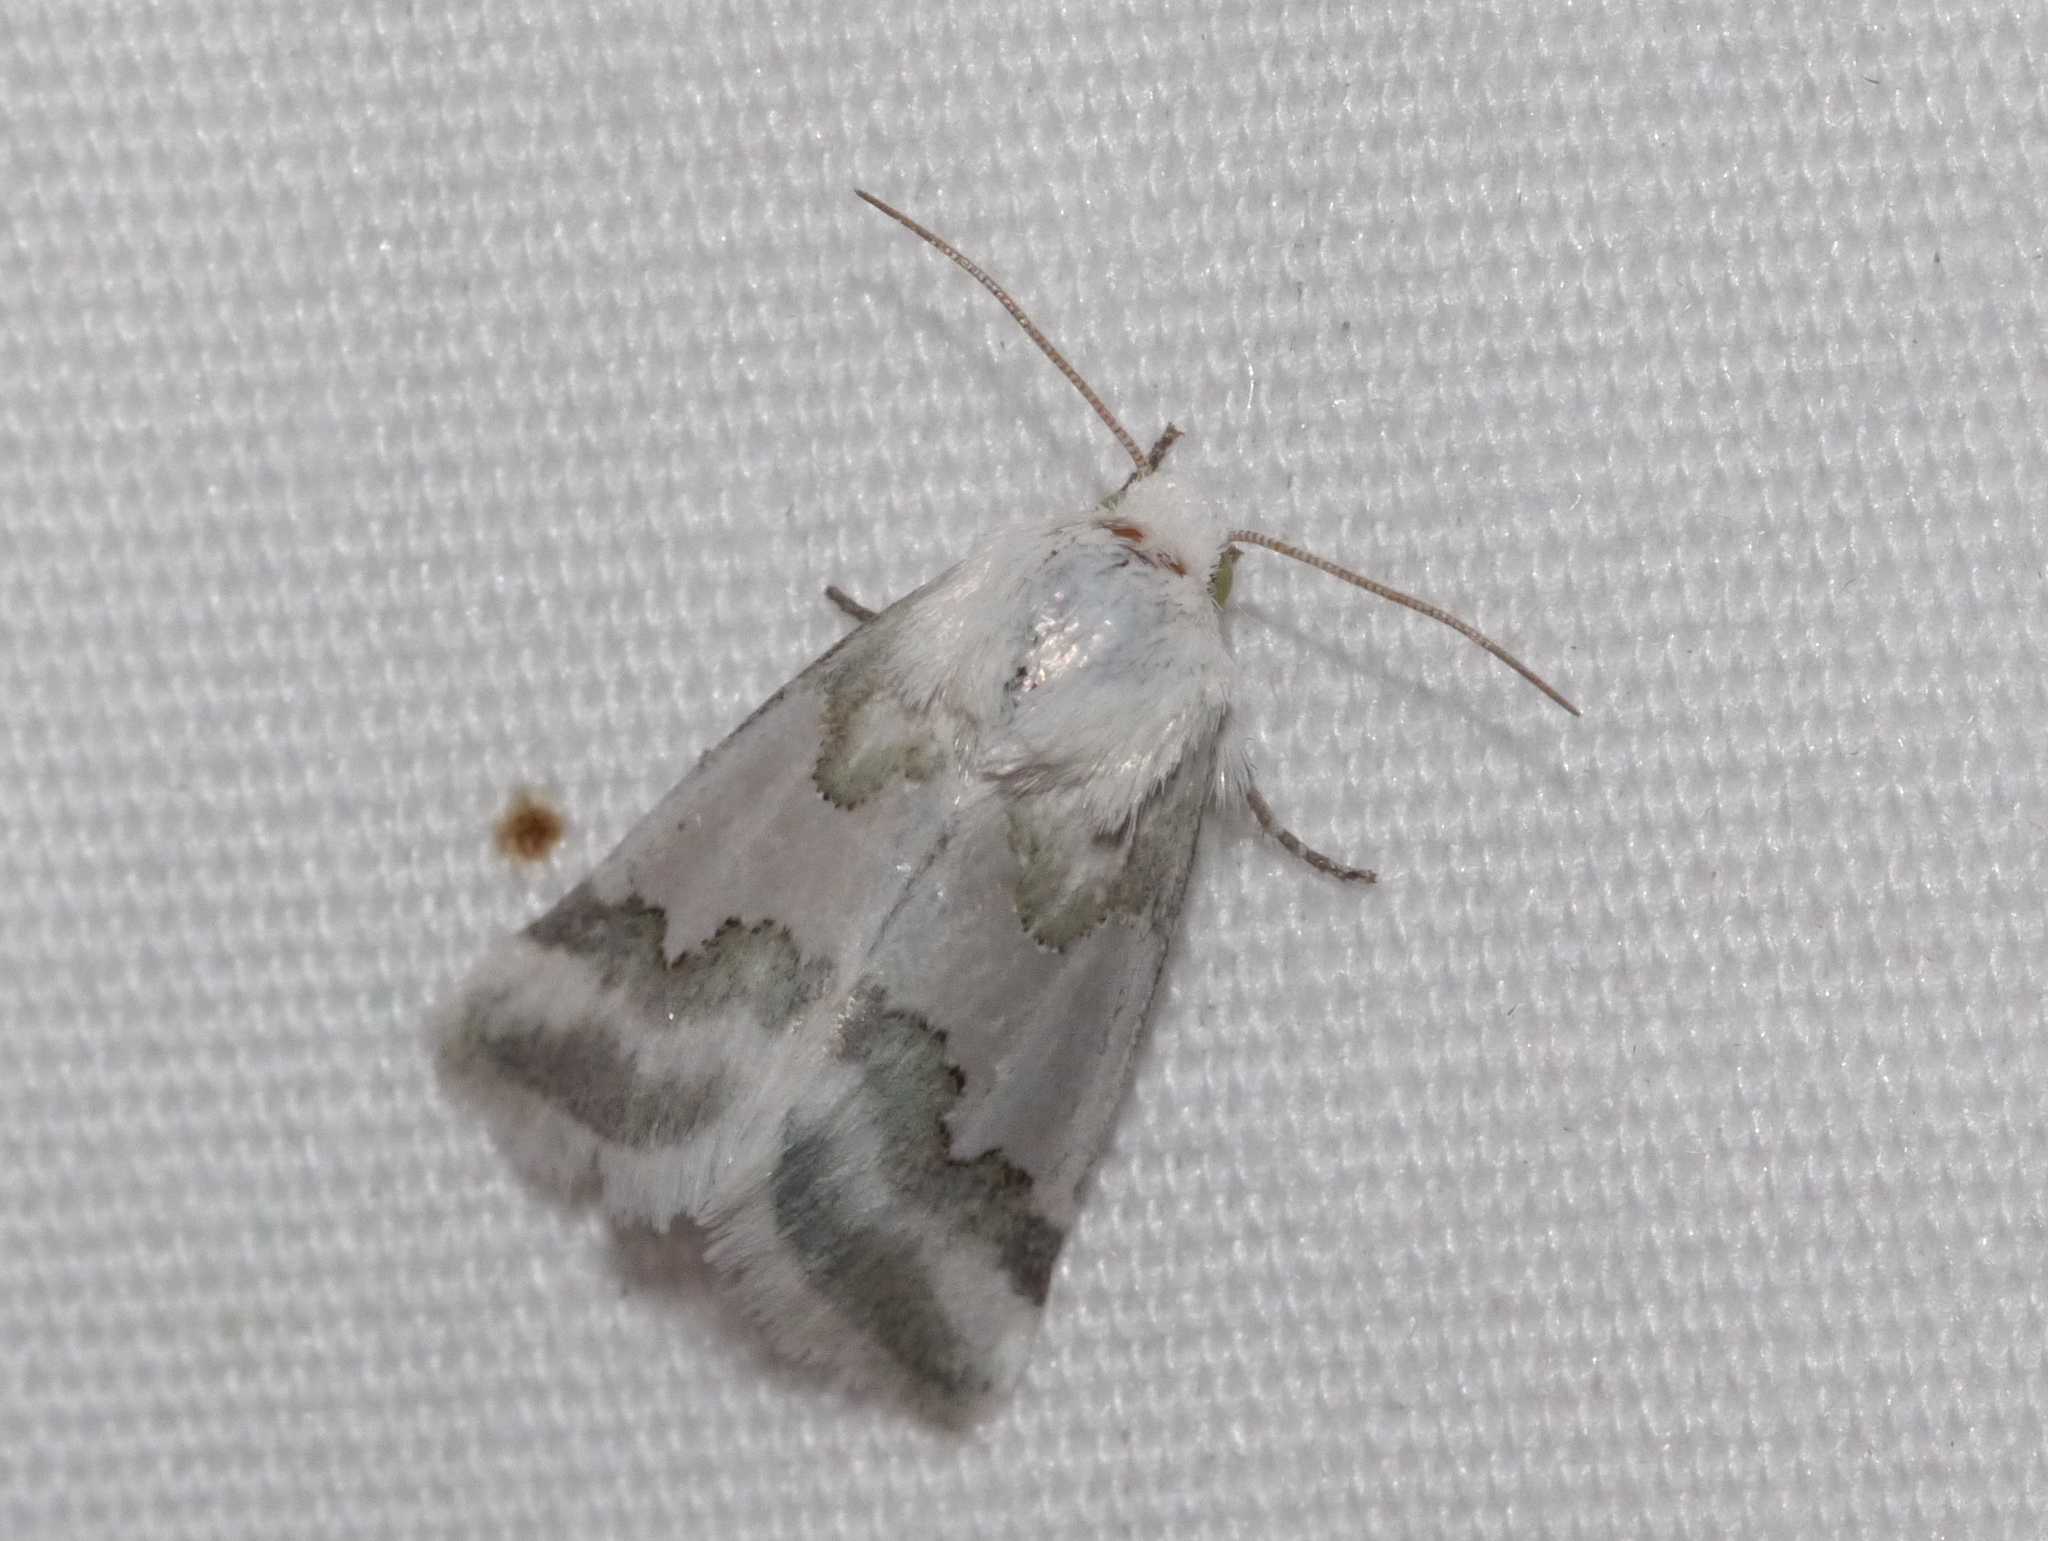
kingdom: Animalia
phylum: Arthropoda
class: Insecta
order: Lepidoptera
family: Noctuidae
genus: Schinia
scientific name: Schinia hulstia
